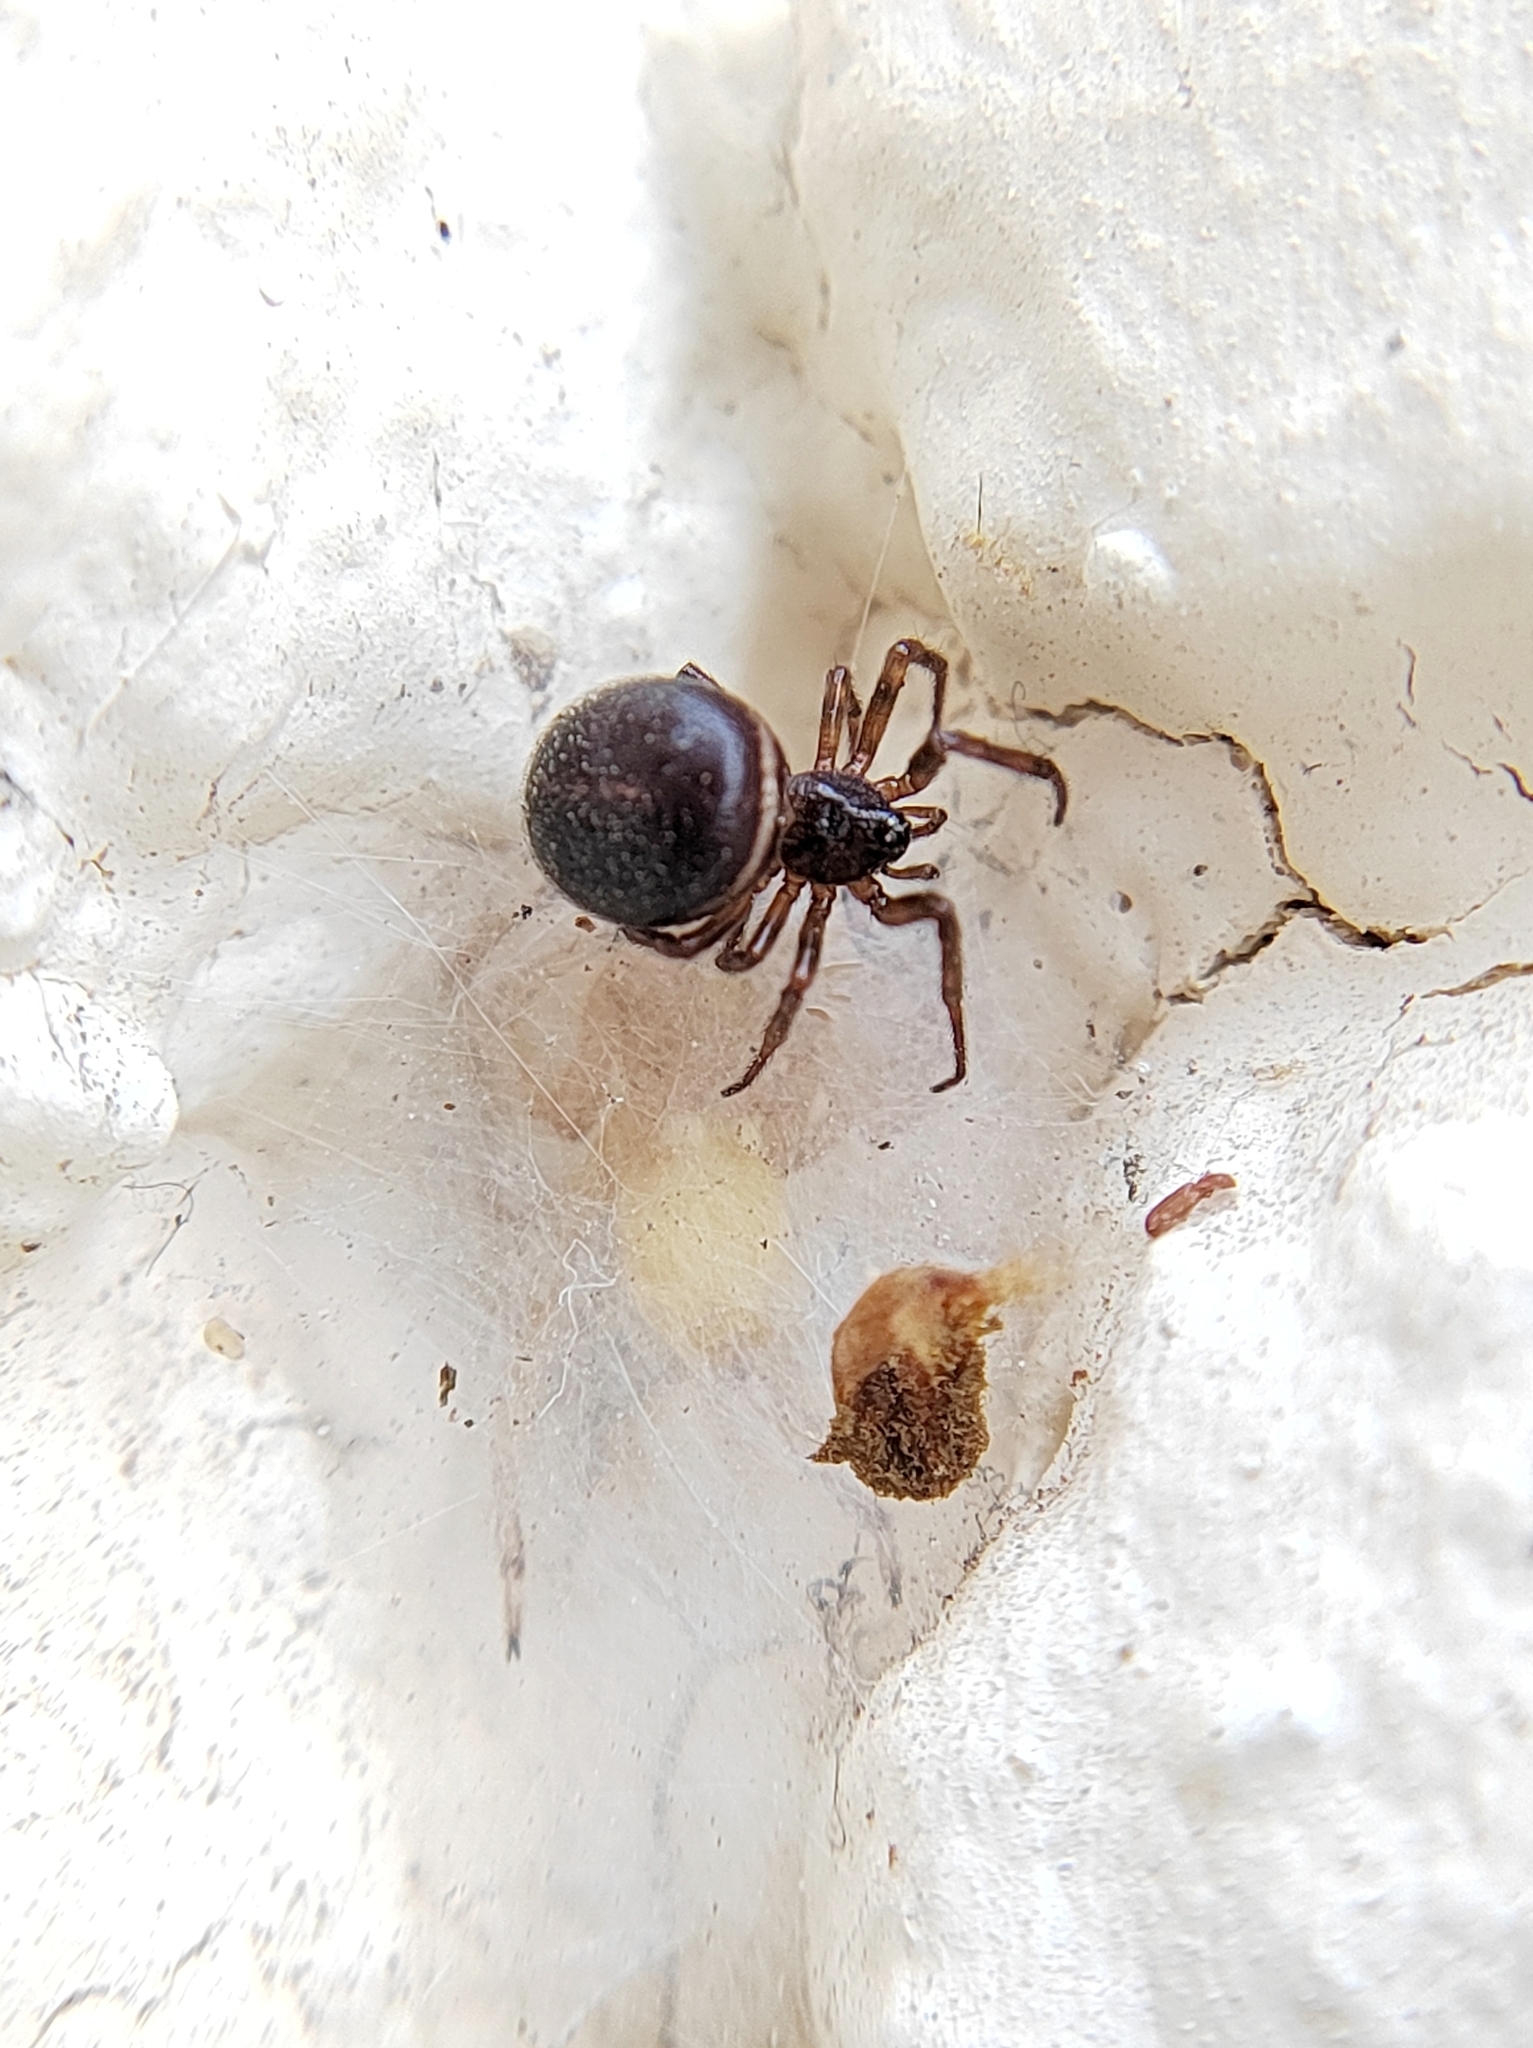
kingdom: Animalia
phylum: Arthropoda
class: Arachnida
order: Araneae
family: Theridiidae
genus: Steatoda
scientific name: Steatoda bipunctata
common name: False widow
